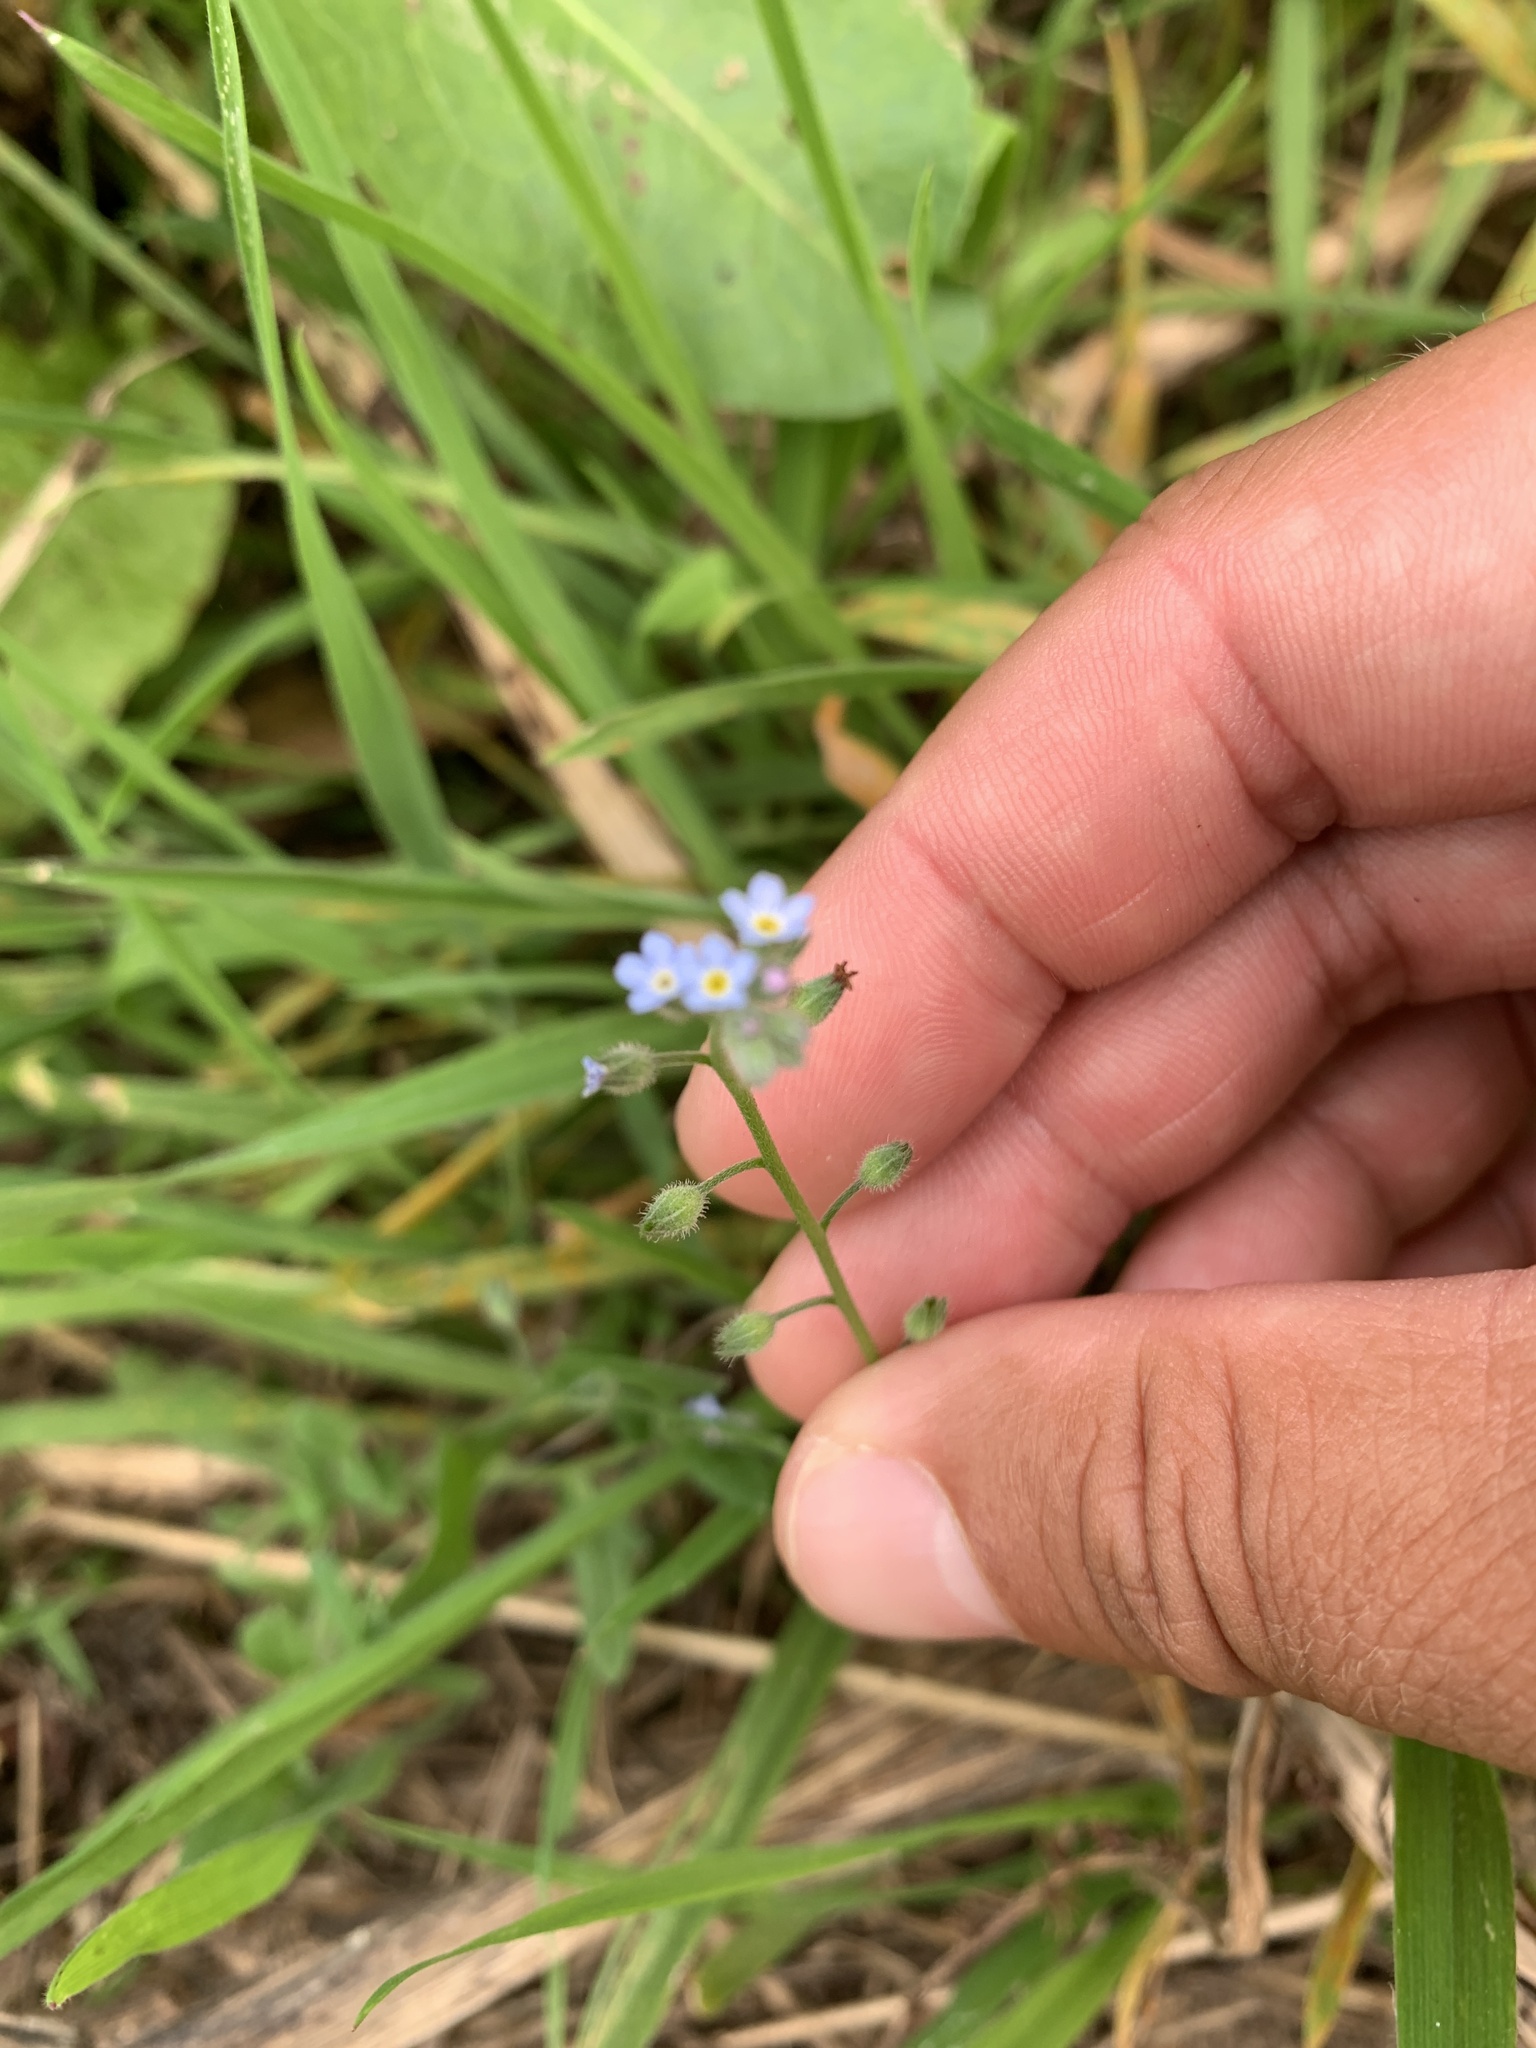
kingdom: Plantae
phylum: Tracheophyta
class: Magnoliopsida
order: Boraginales
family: Boraginaceae
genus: Myosotis
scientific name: Myosotis arvensis
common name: Field forget-me-not
